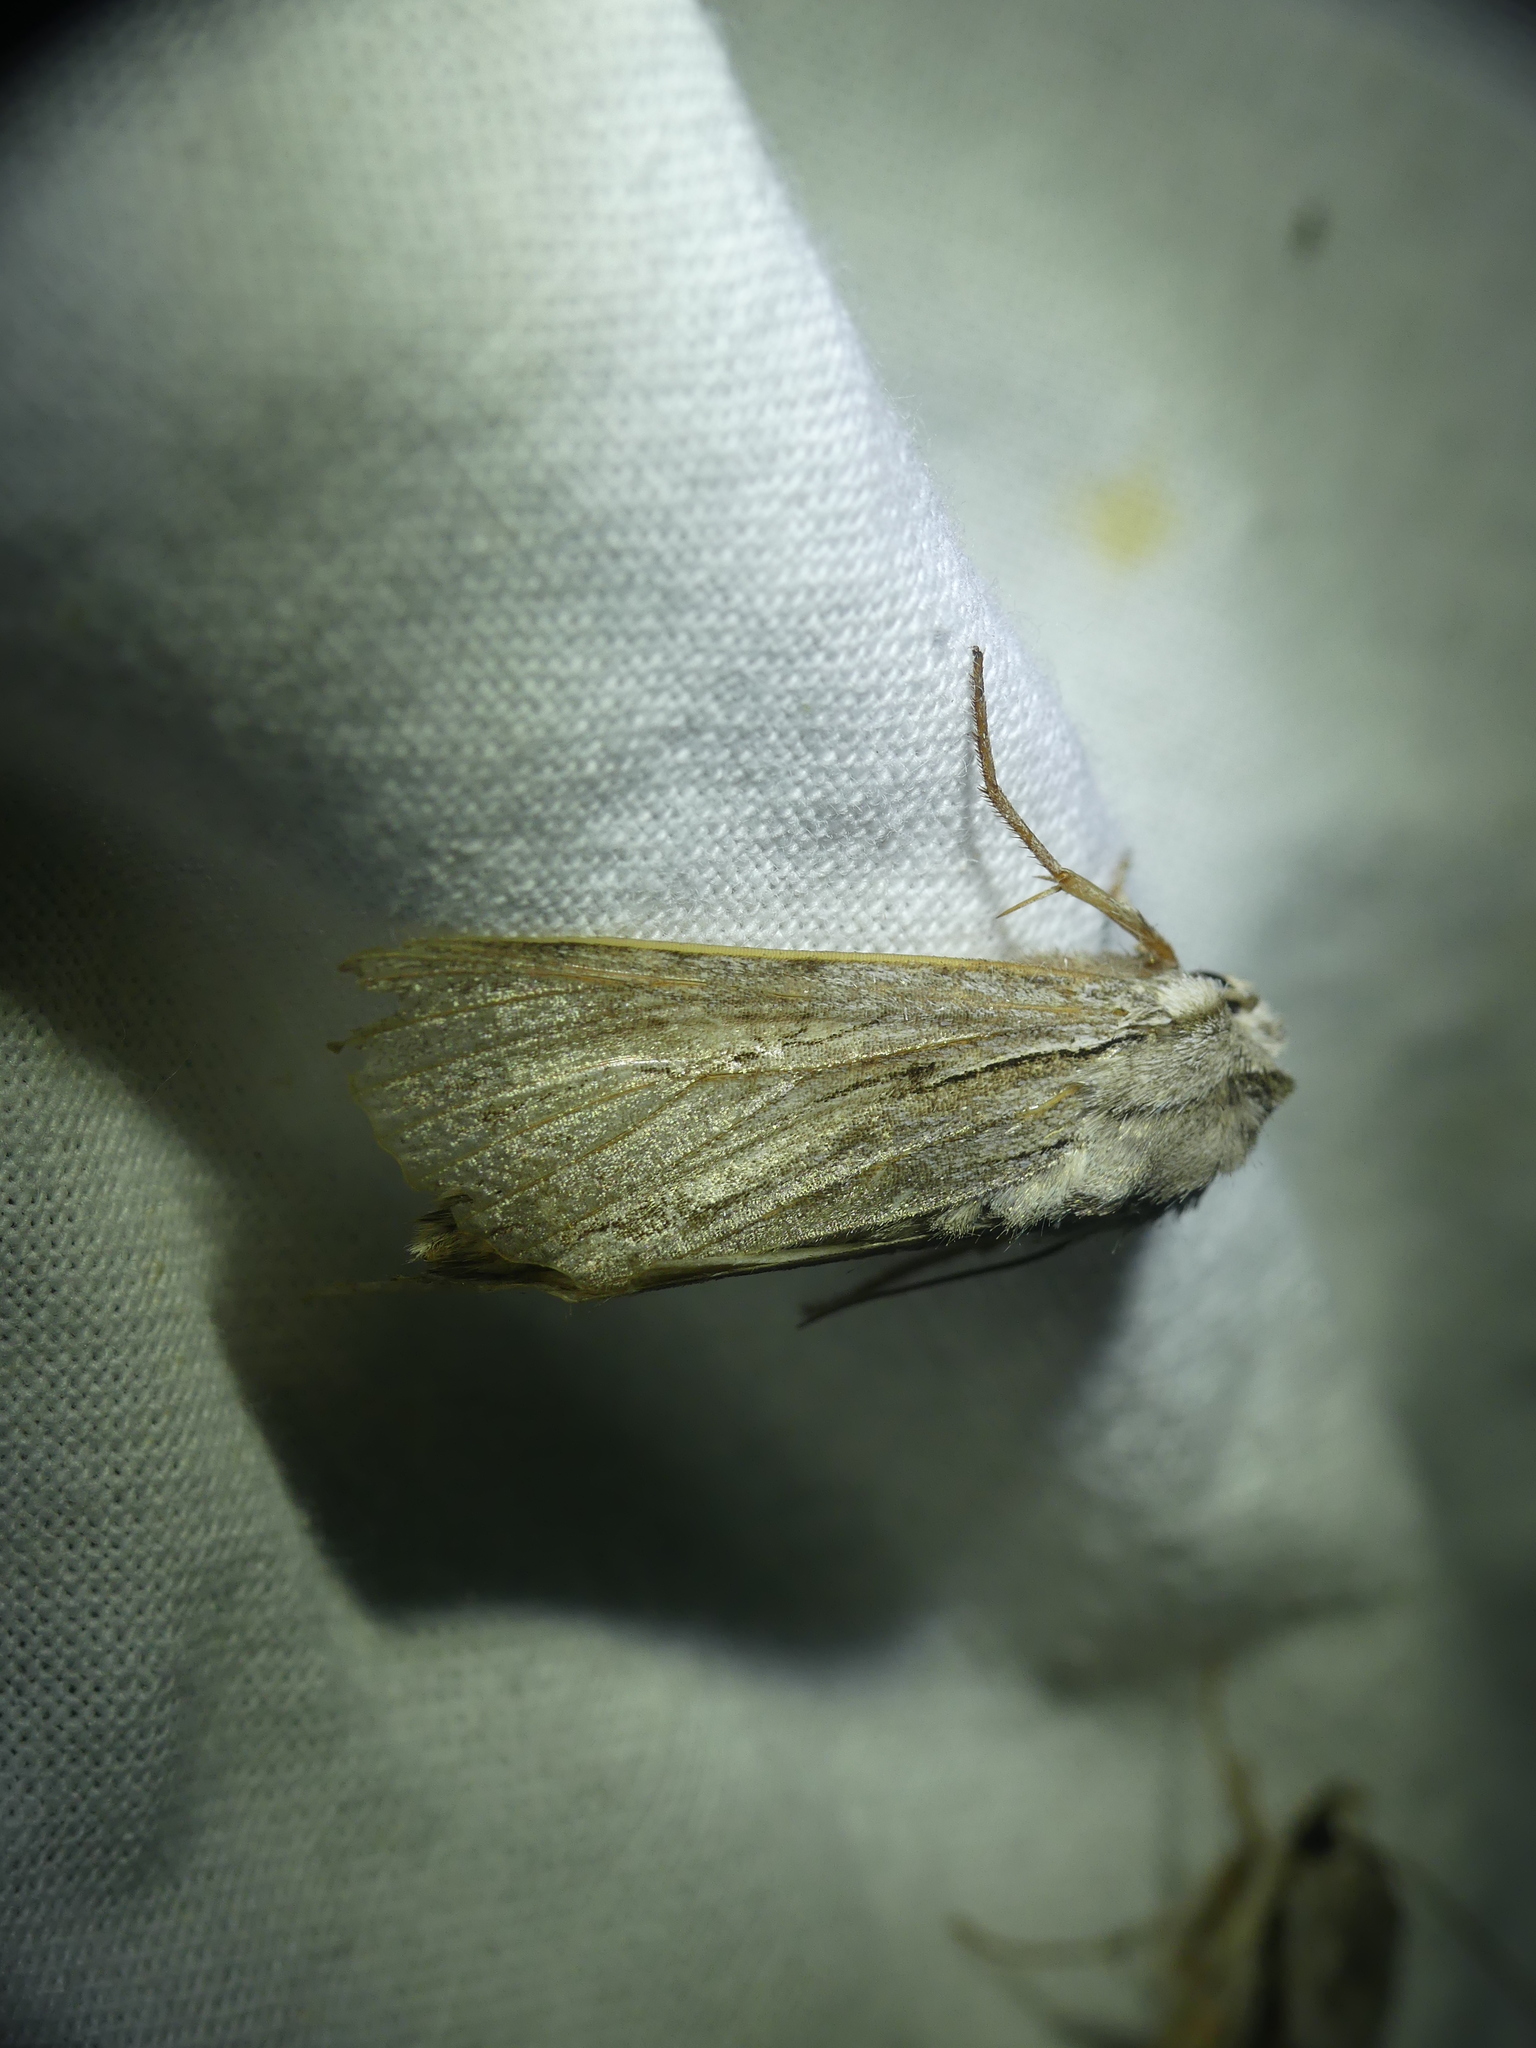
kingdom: Animalia
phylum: Arthropoda
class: Insecta
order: Lepidoptera
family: Noctuidae
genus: Auchmis
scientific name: Auchmis detersa
